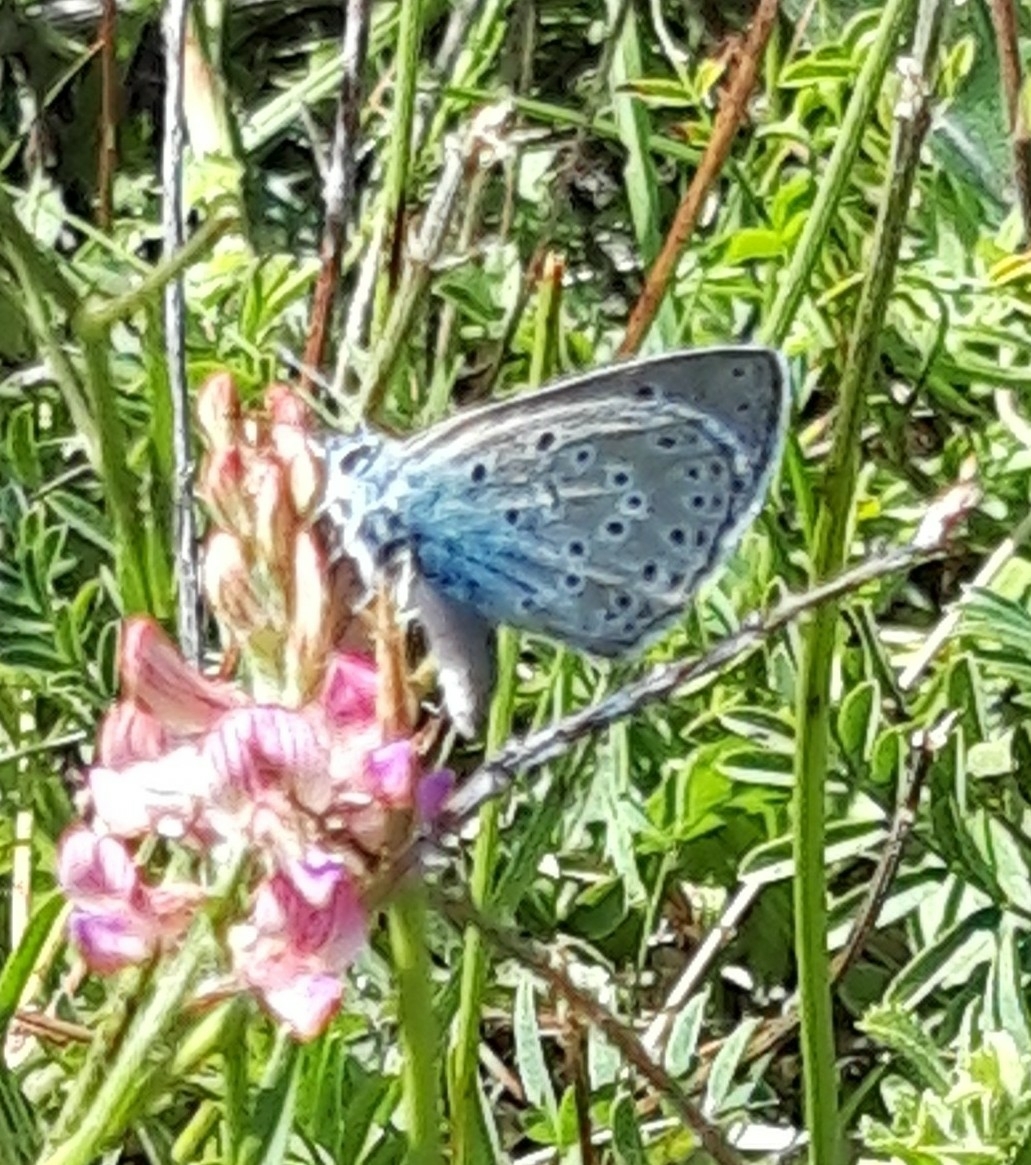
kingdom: Animalia
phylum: Arthropoda
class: Insecta
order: Lepidoptera
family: Lycaenidae
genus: Maculinea
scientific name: Maculinea arion
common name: Large blue
